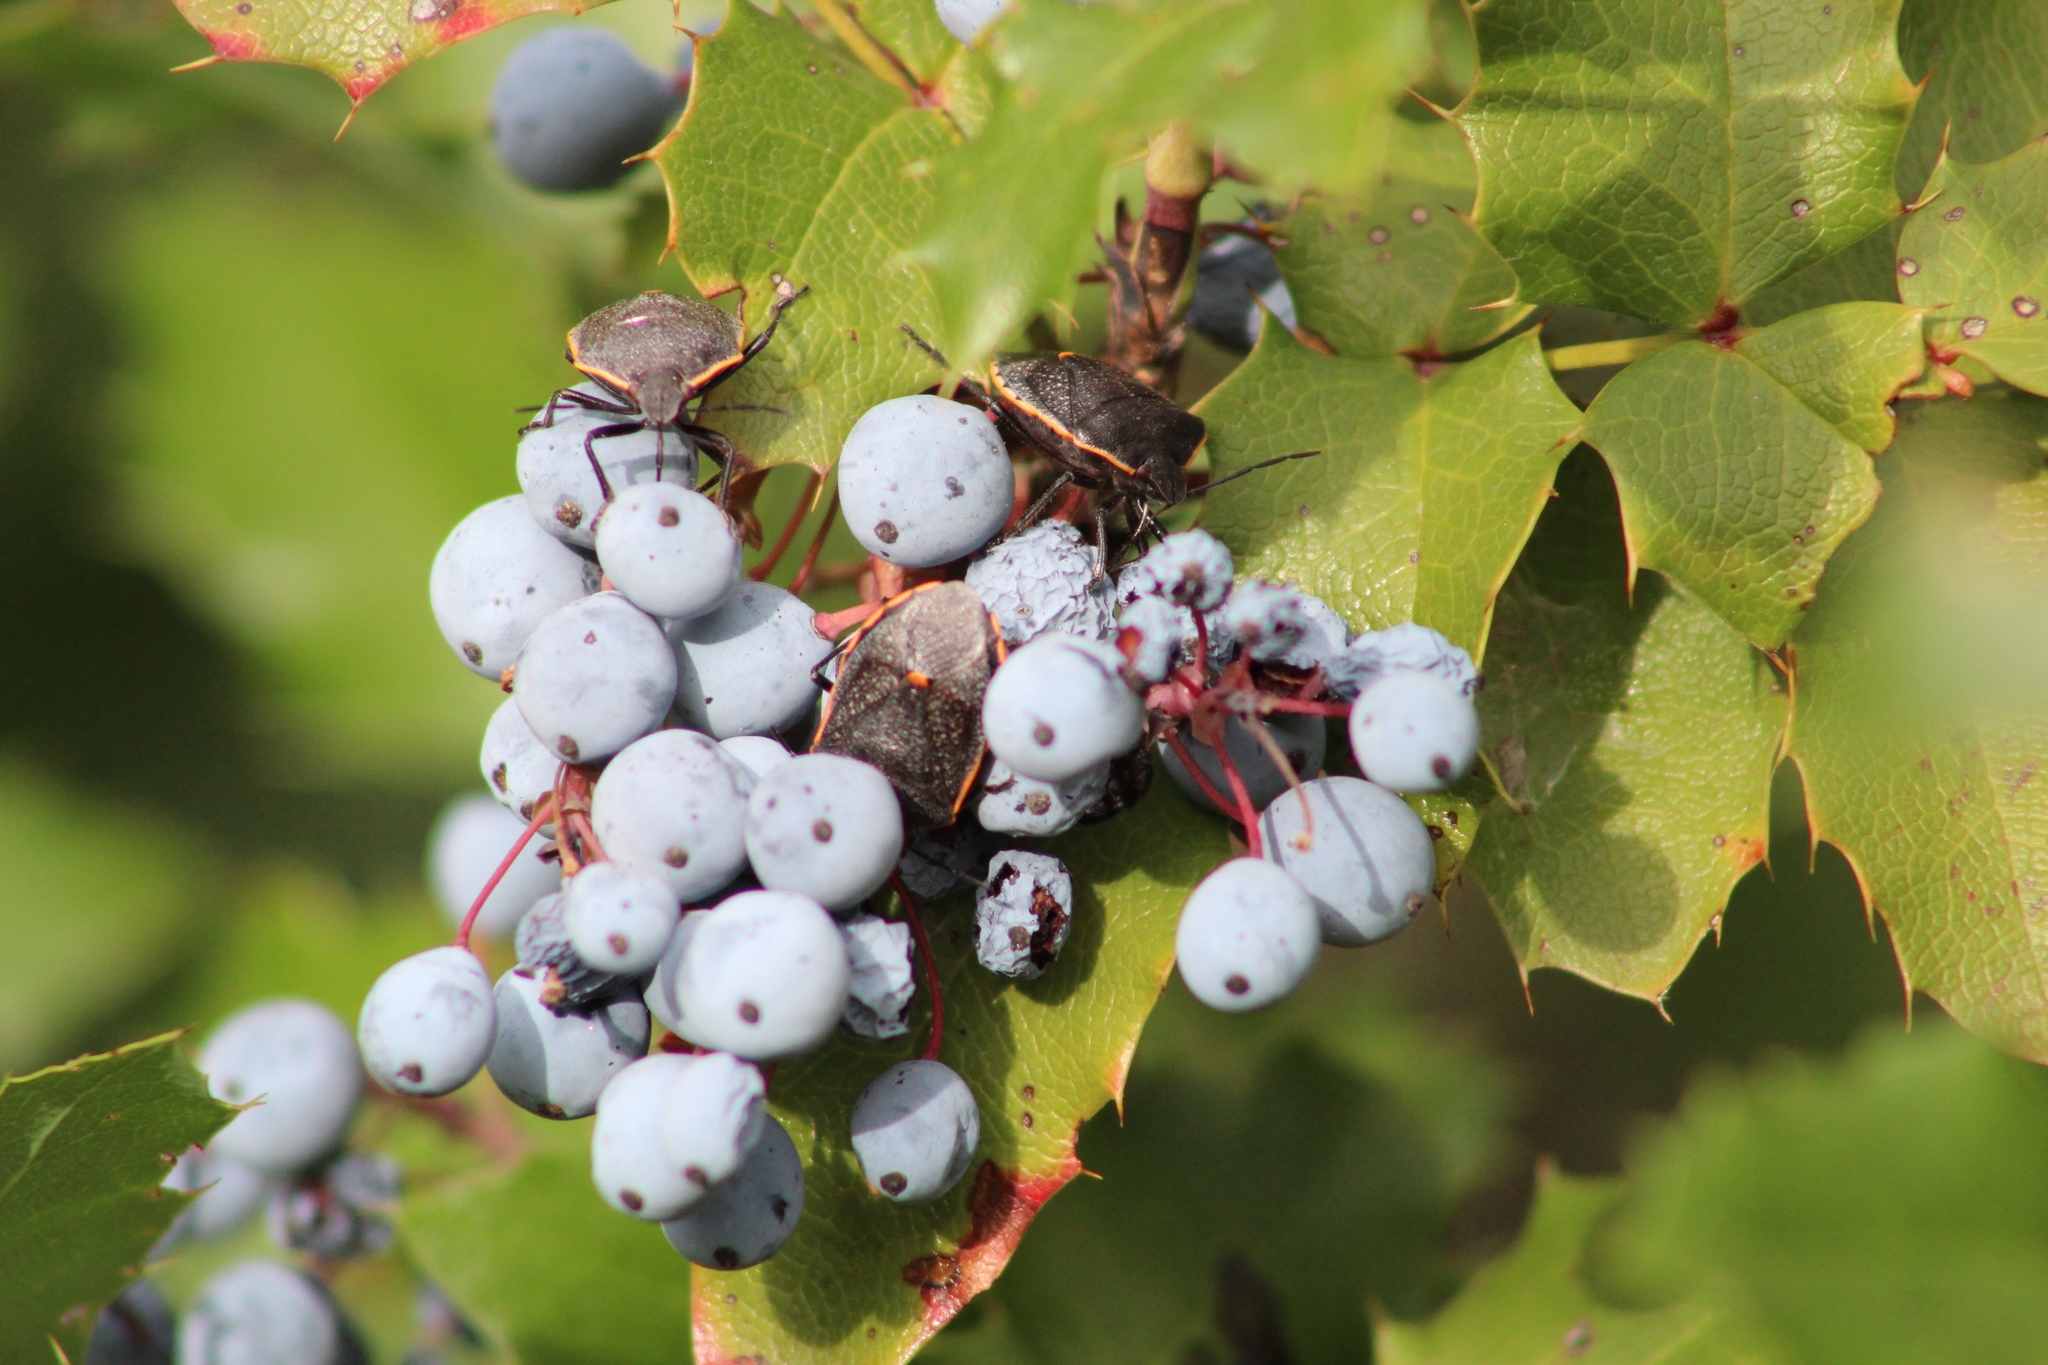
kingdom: Animalia
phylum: Arthropoda
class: Insecta
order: Hemiptera
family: Pentatomidae
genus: Chlorochroa
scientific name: Chlorochroa ligata
